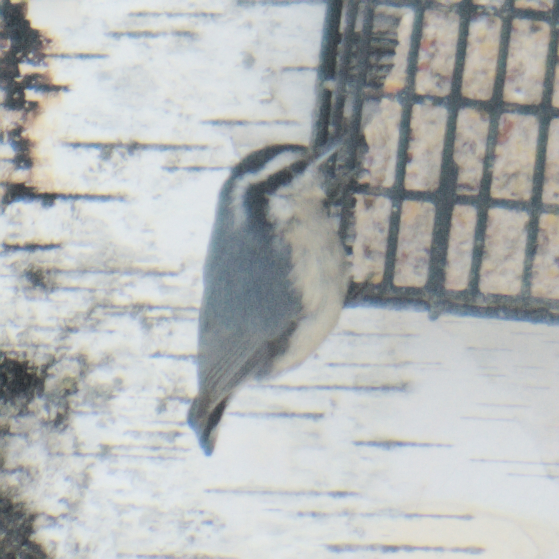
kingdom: Animalia
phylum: Chordata
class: Aves
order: Passeriformes
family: Sittidae
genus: Sitta
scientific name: Sitta canadensis
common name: Red-breasted nuthatch
